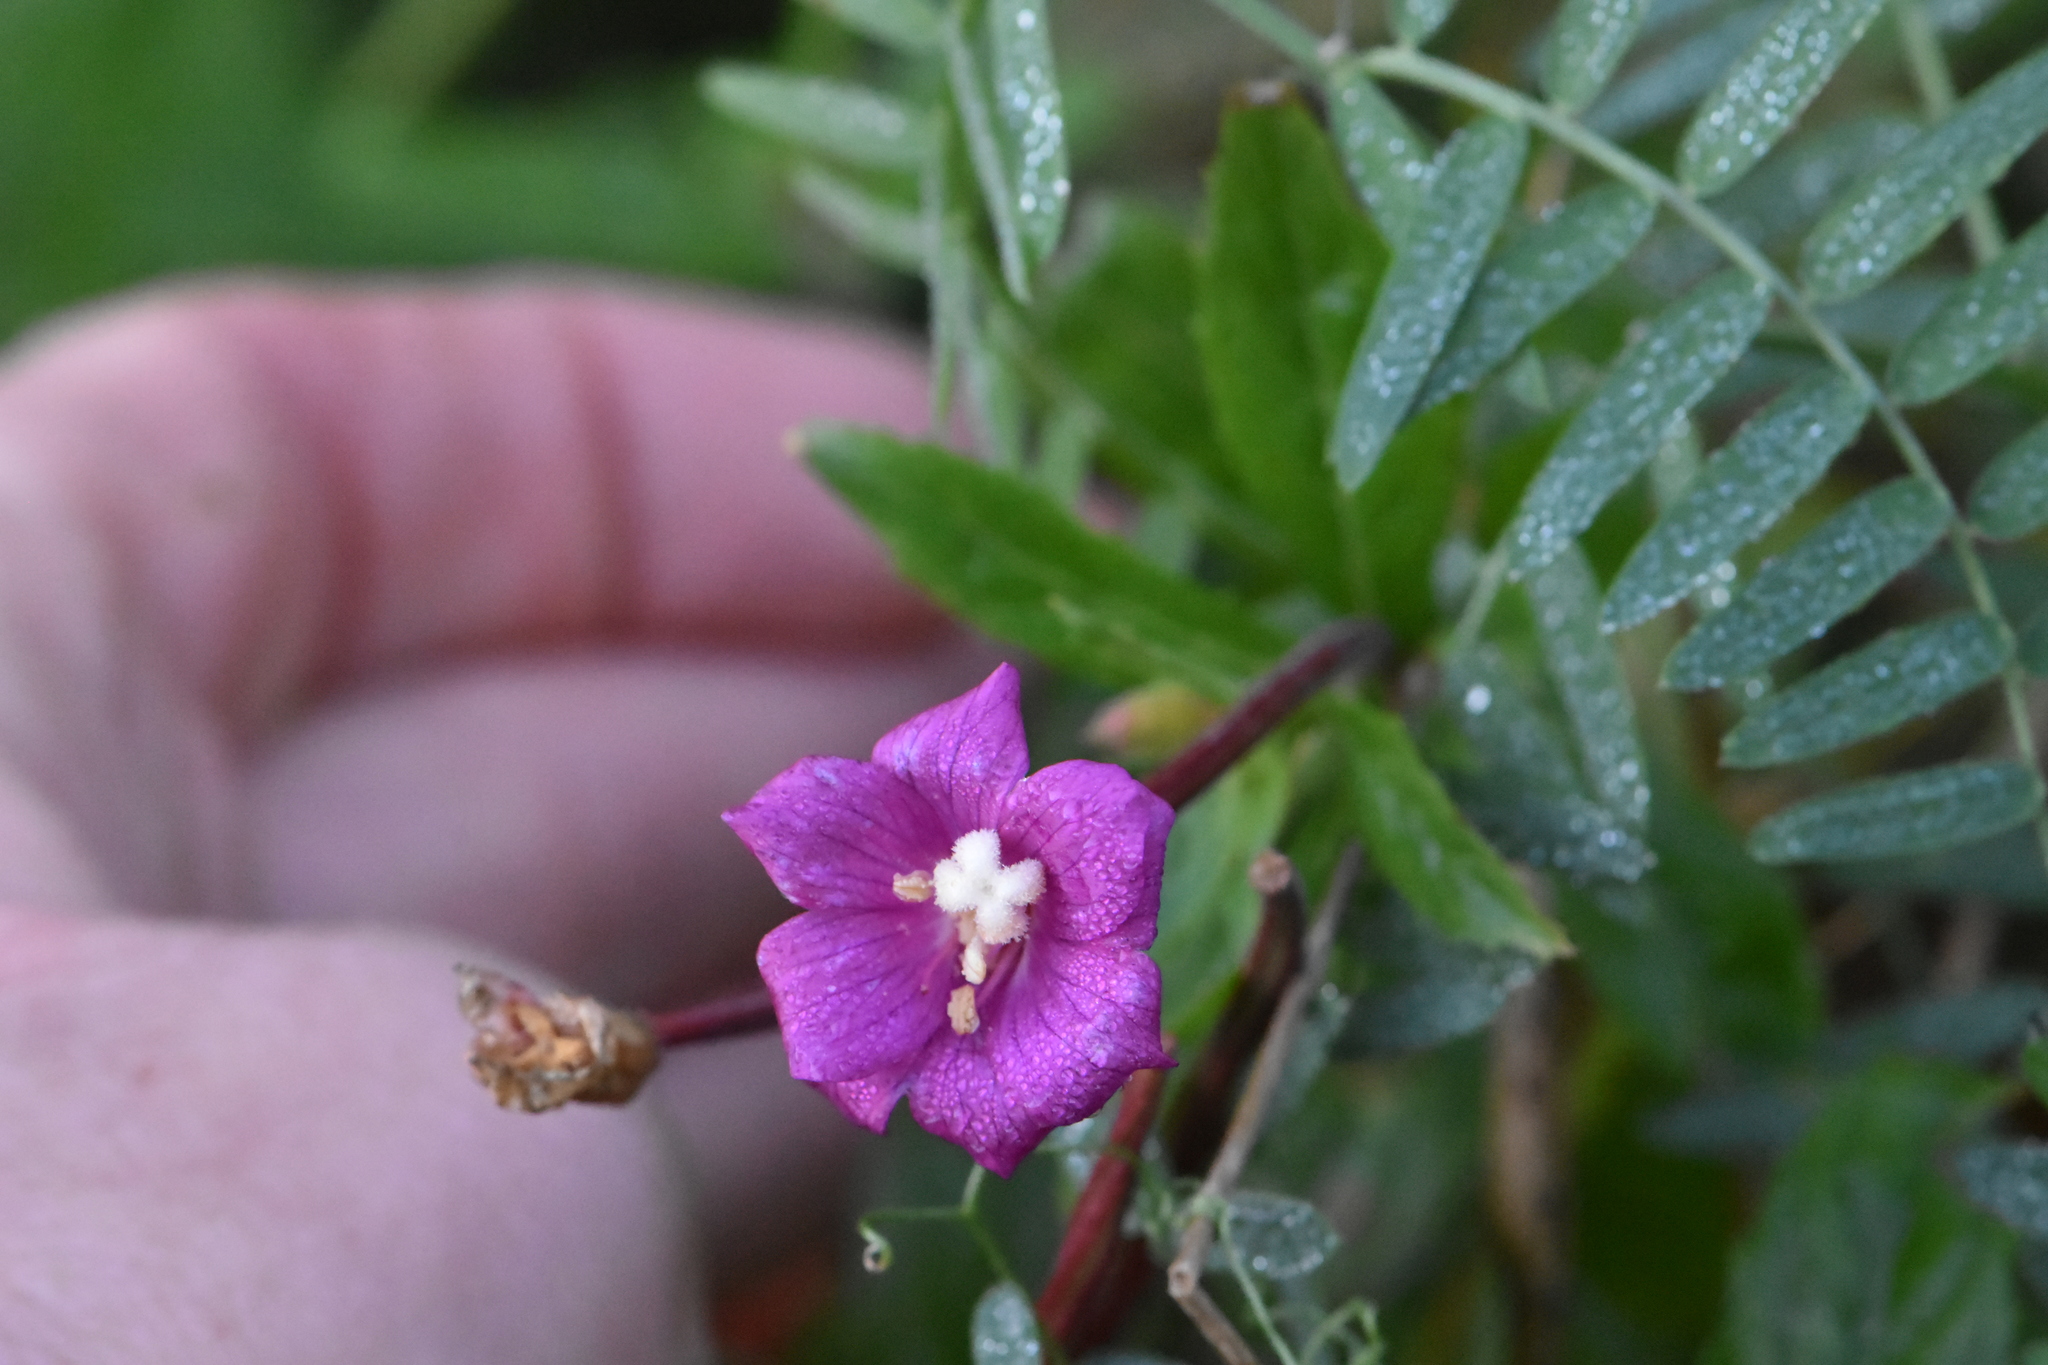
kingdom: Plantae
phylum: Tracheophyta
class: Magnoliopsida
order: Myrtales
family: Onagraceae
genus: Epilobium
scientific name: Epilobium hirsutum
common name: Great willowherb
